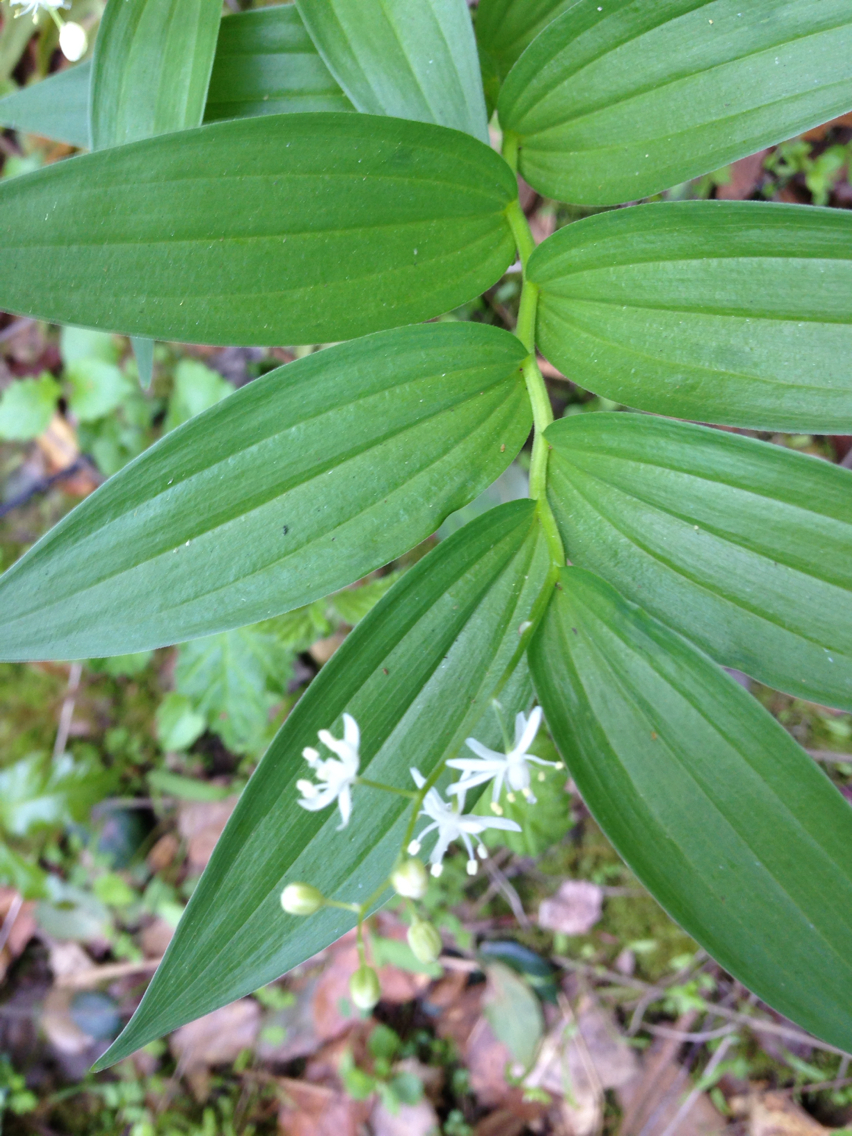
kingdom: Plantae
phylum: Tracheophyta
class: Liliopsida
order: Asparagales
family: Asparagaceae
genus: Maianthemum
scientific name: Maianthemum stellatum
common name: Little false solomon's seal
